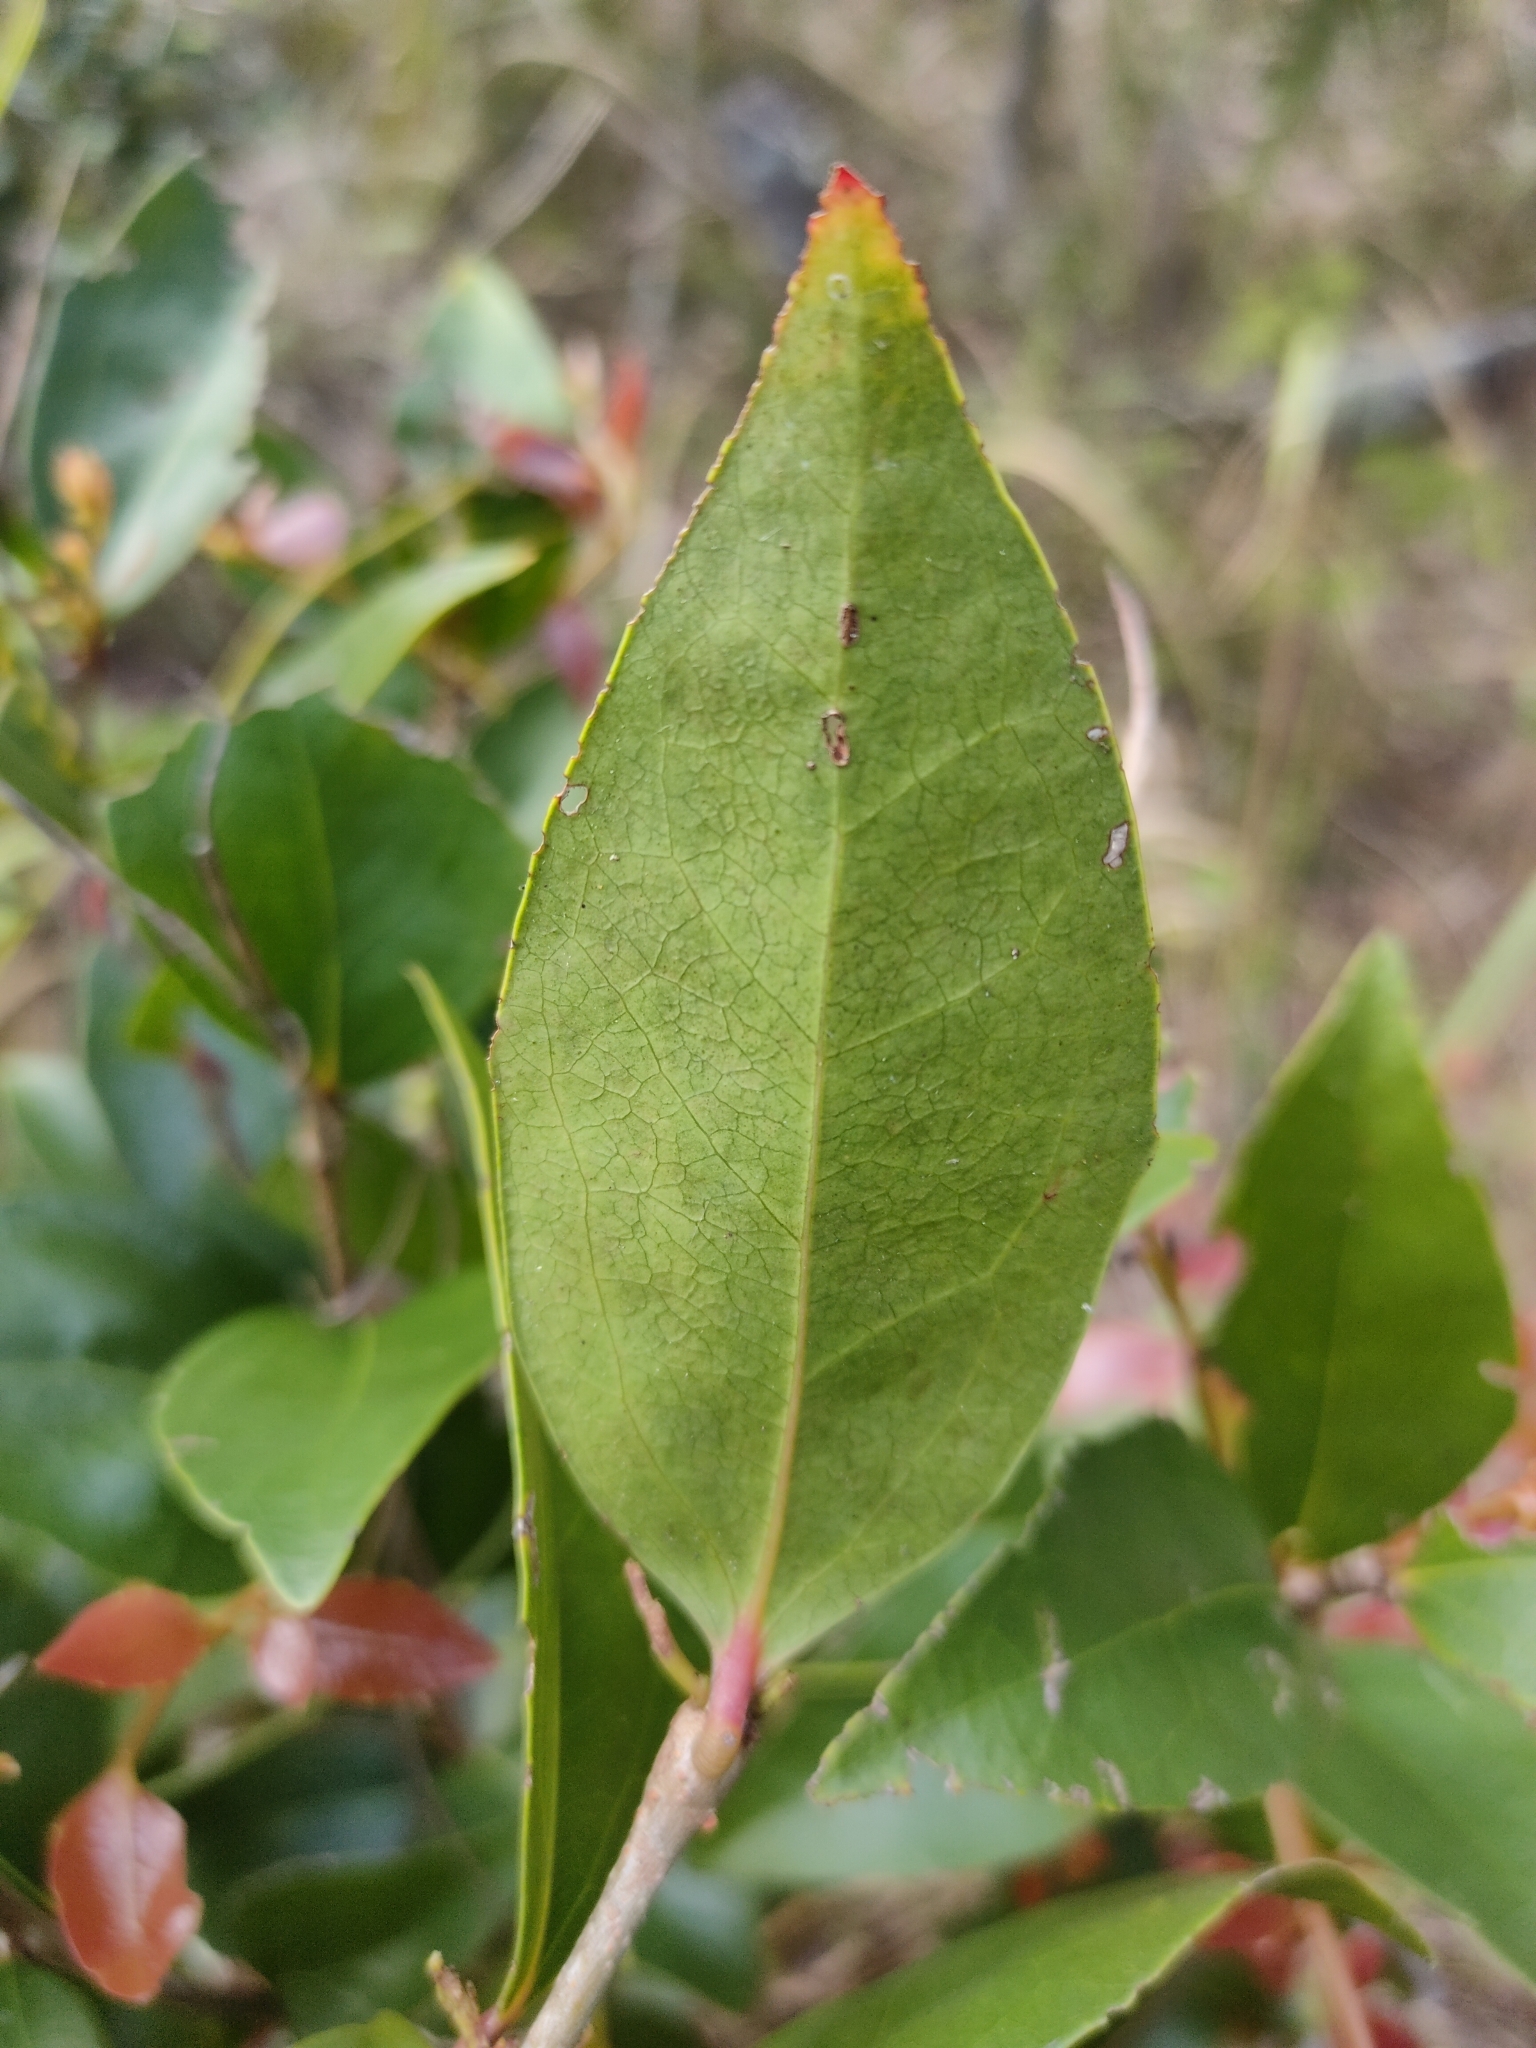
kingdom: Plantae
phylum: Tracheophyta
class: Magnoliopsida
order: Malpighiales
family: Salicaceae
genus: Scolopia
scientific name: Scolopia braunii
